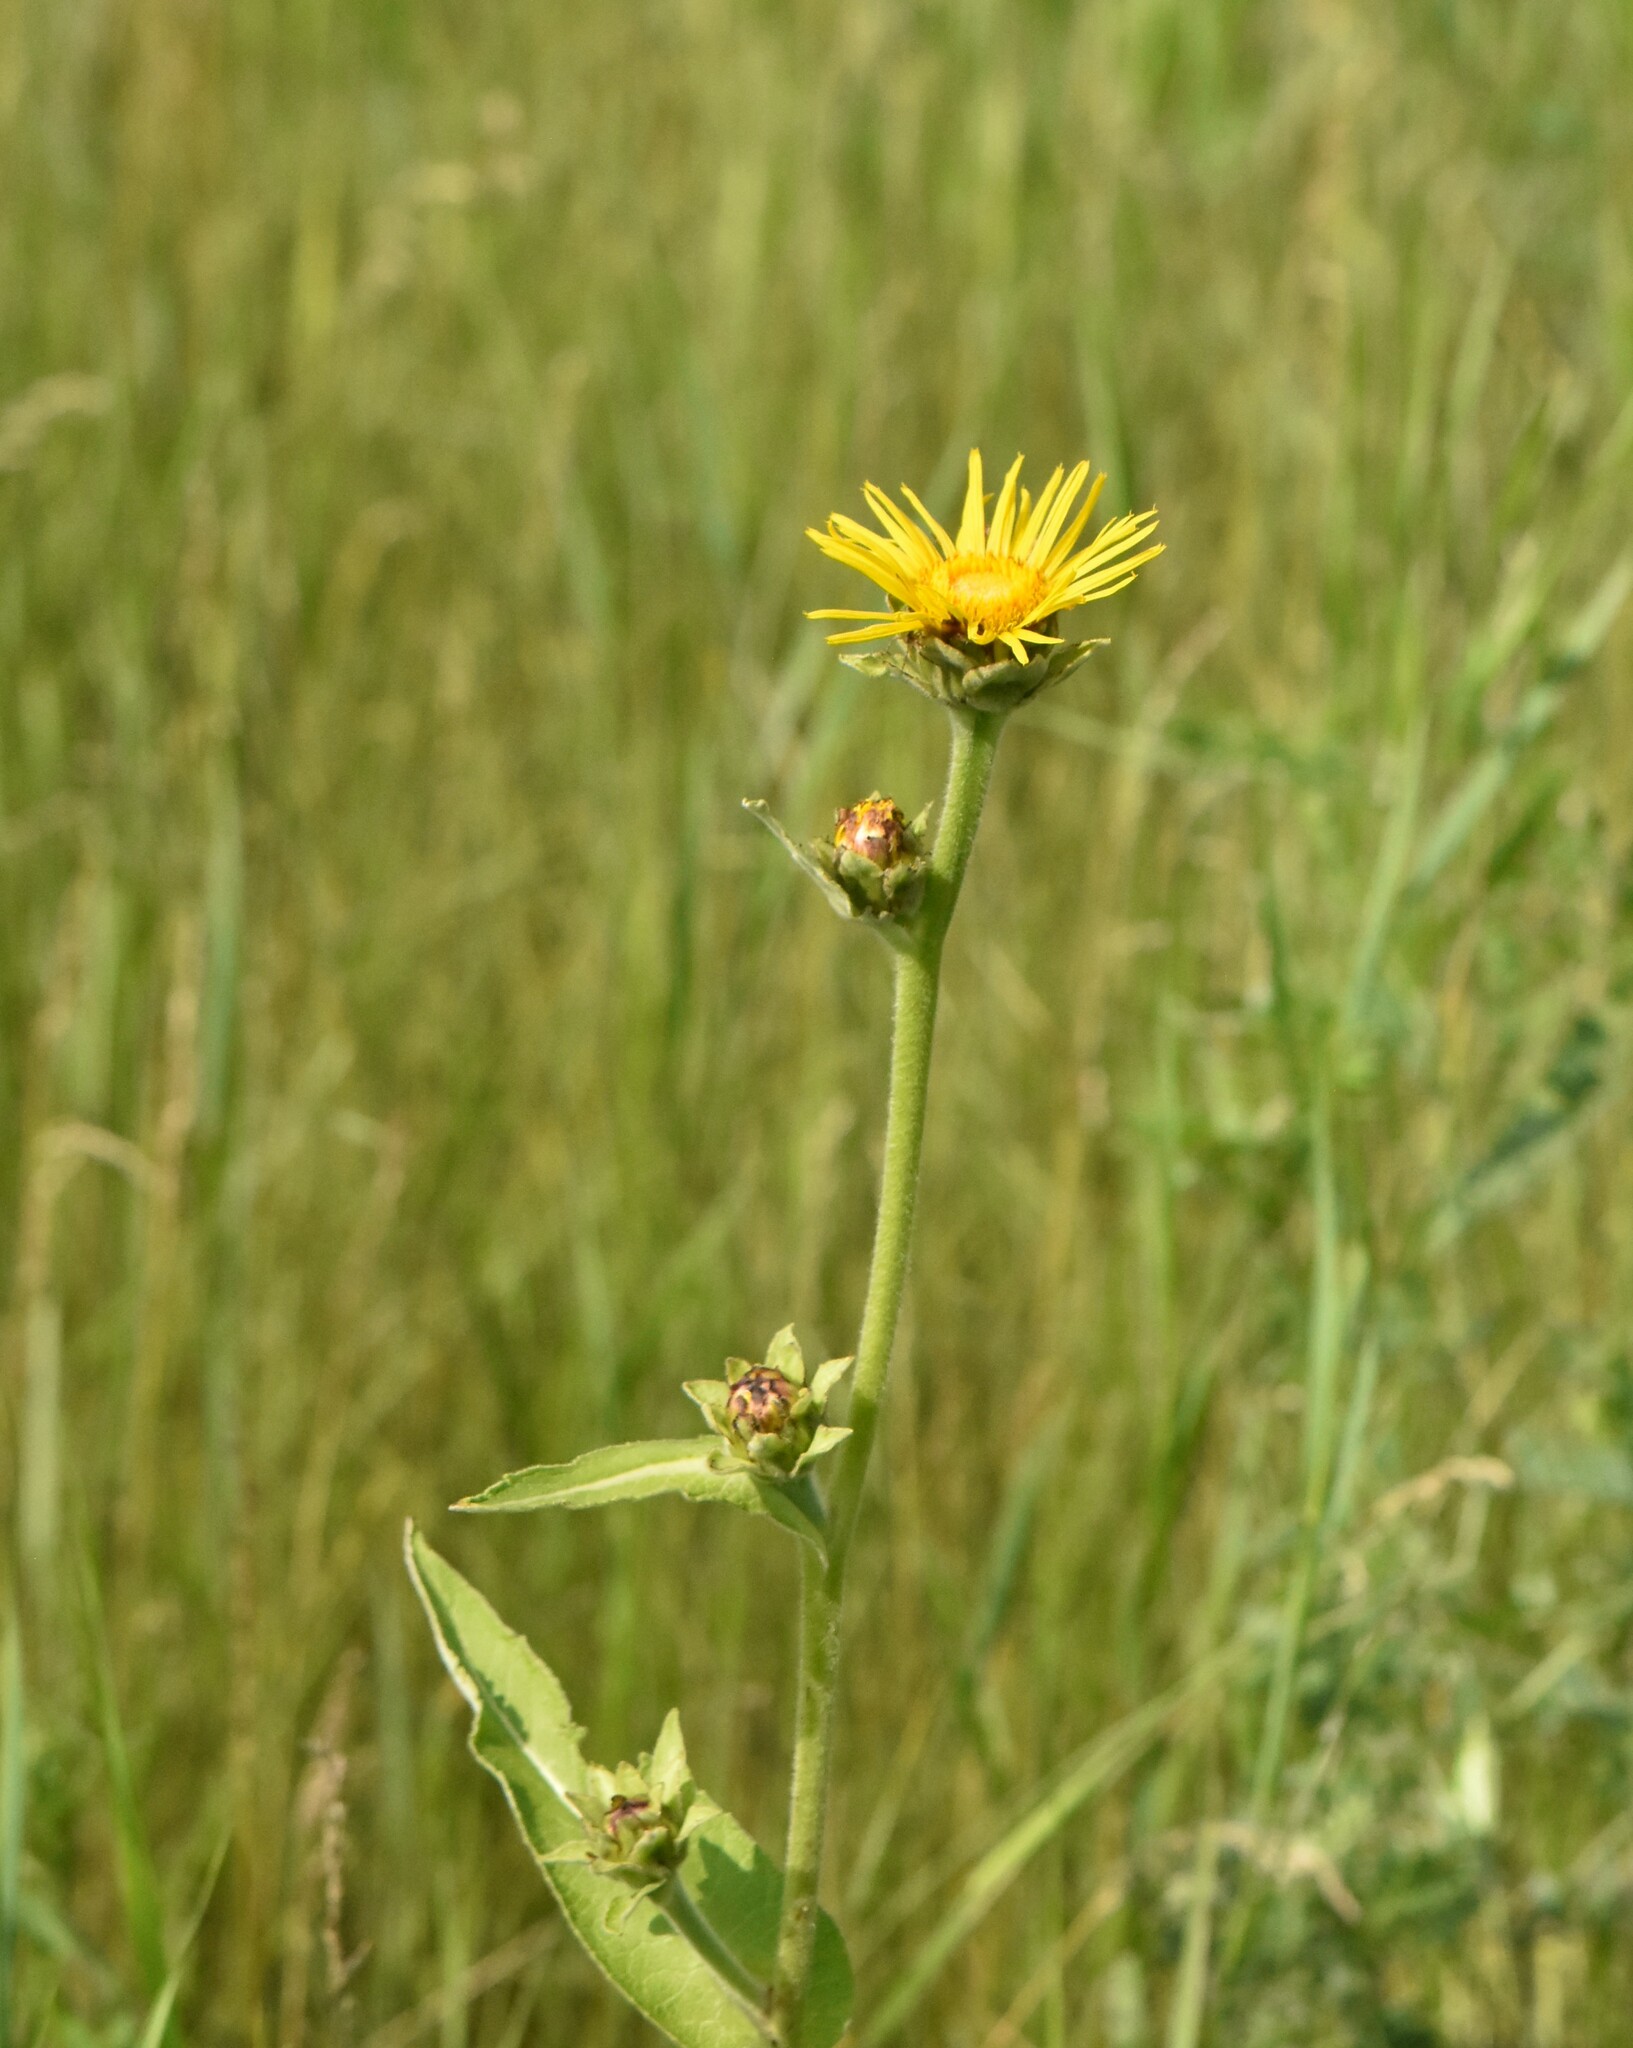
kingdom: Plantae
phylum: Tracheophyta
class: Magnoliopsida
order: Asterales
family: Asteraceae
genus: Inula
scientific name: Inula helenium
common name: Elecampane
